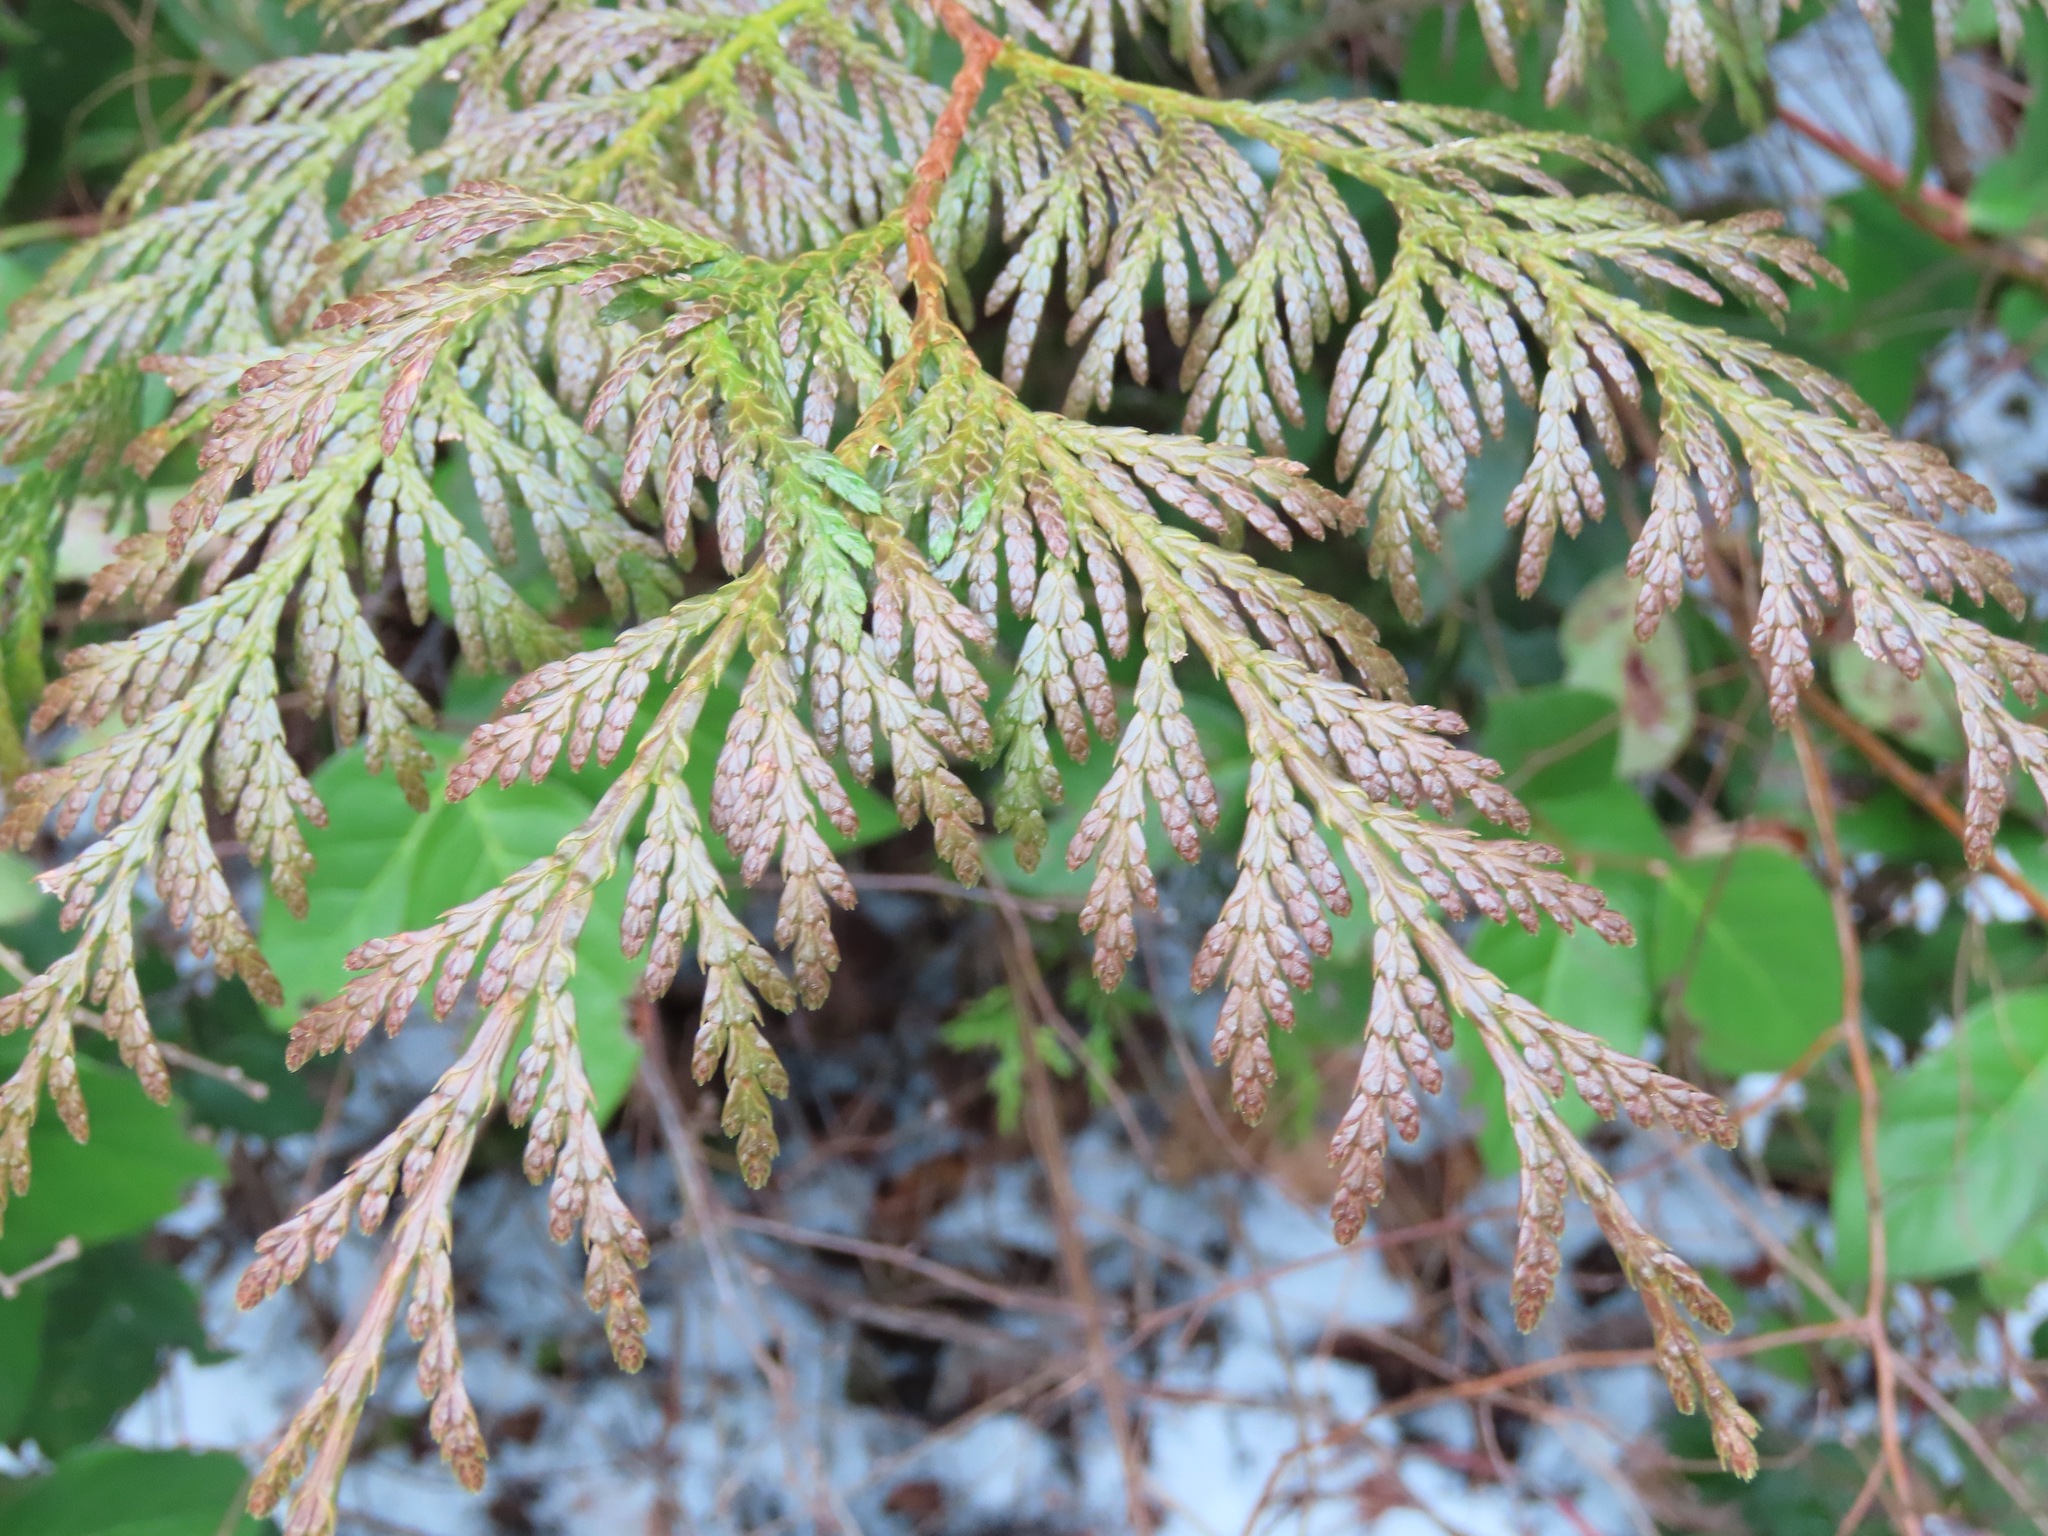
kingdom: Plantae
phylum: Tracheophyta
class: Pinopsida
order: Pinales
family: Cupressaceae
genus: Thuja
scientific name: Thuja plicata
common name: Western red-cedar
